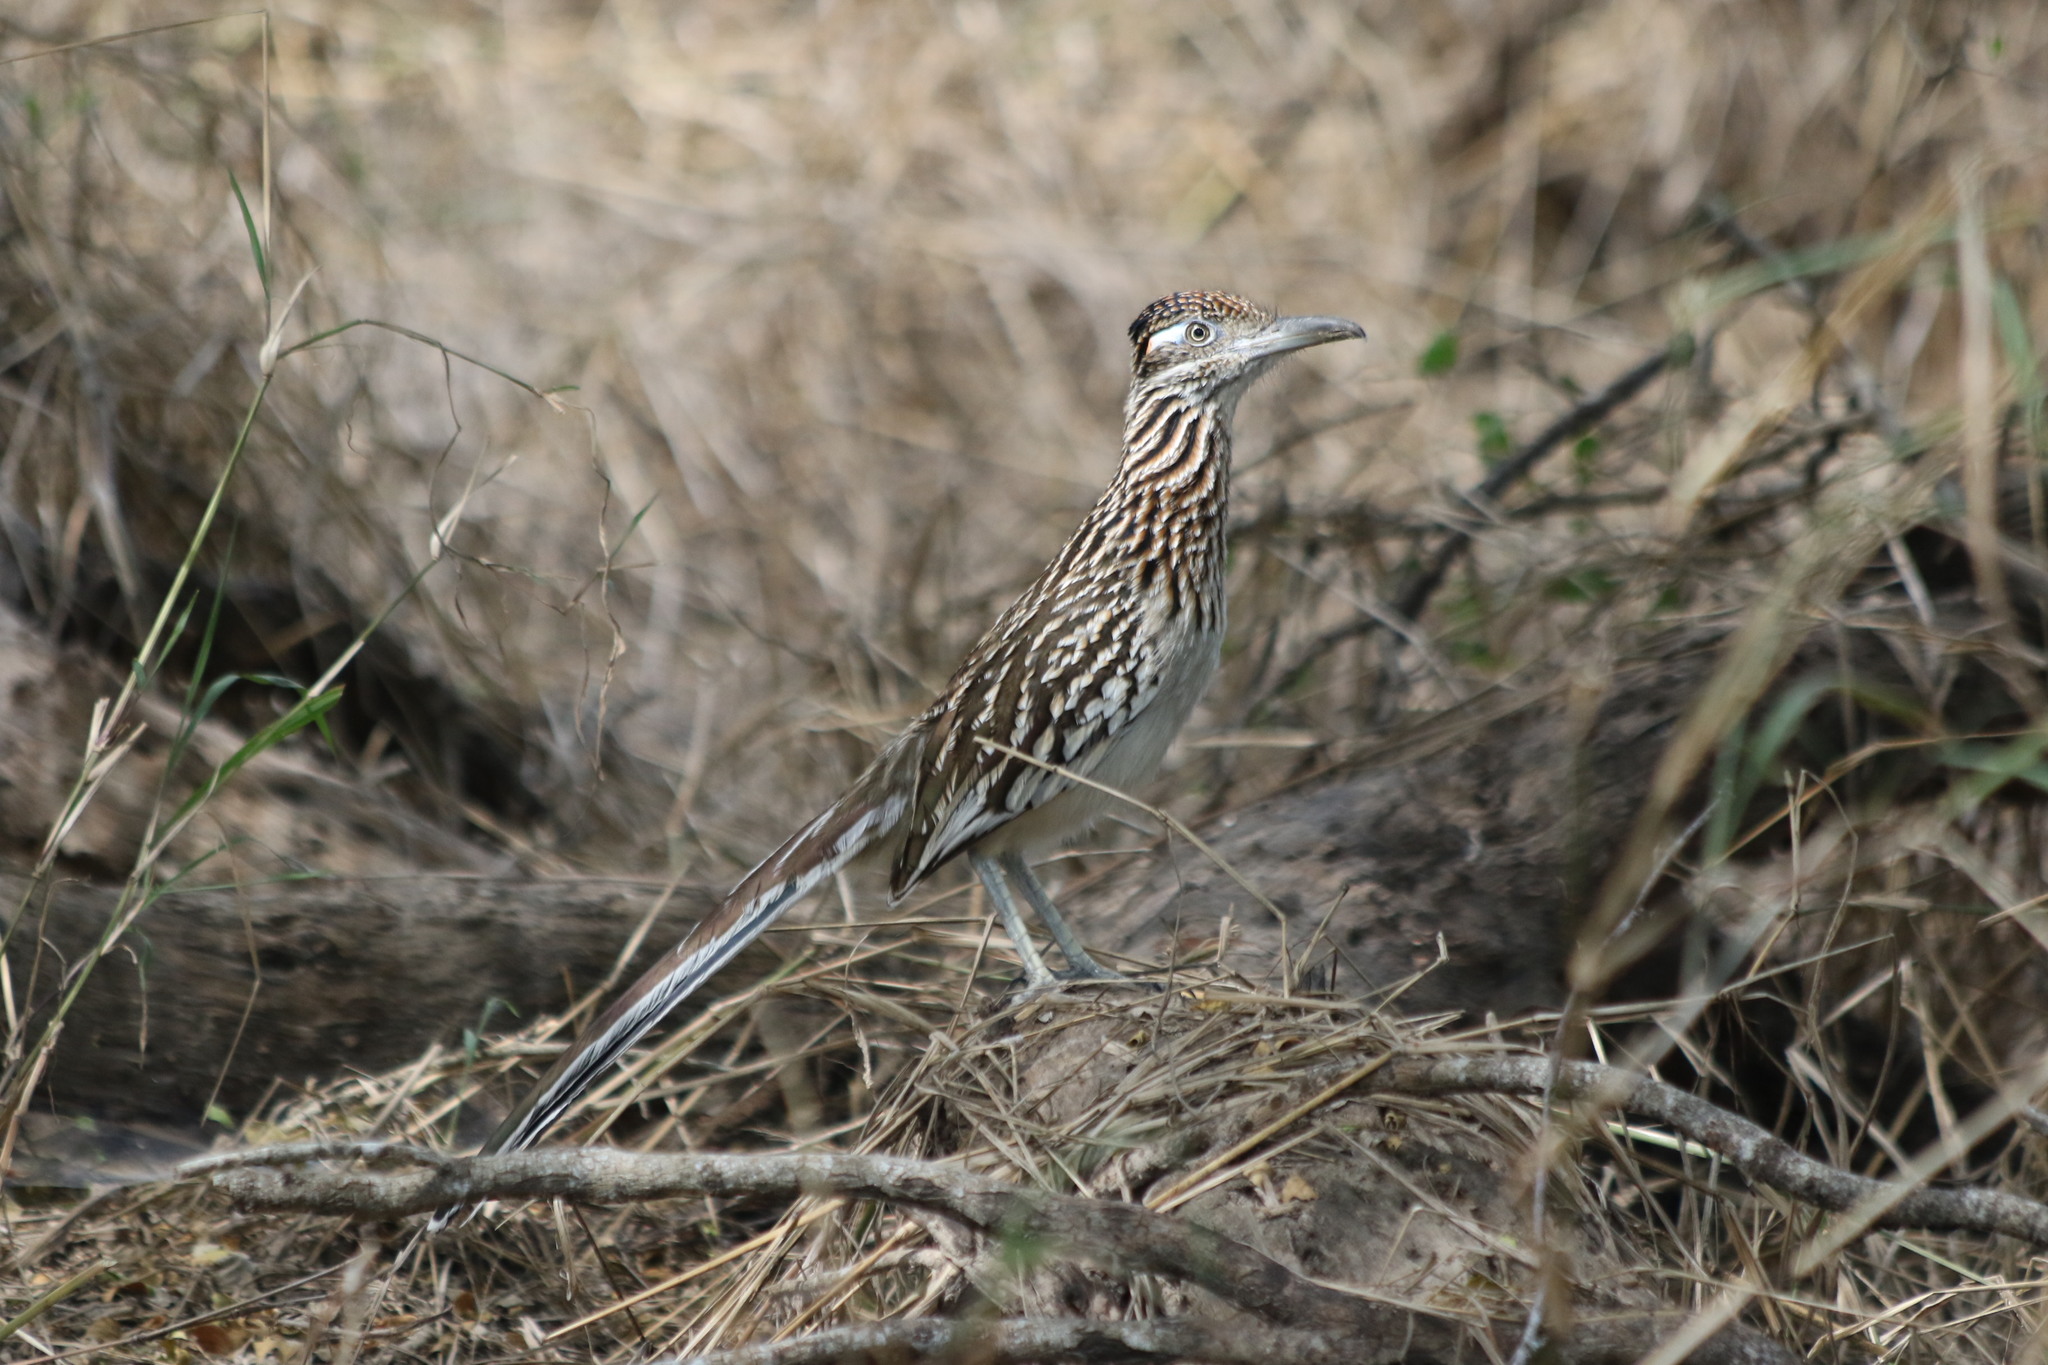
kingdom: Animalia
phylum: Chordata
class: Aves
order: Cuculiformes
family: Cuculidae
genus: Geococcyx
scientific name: Geococcyx californianus
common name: Greater roadrunner
